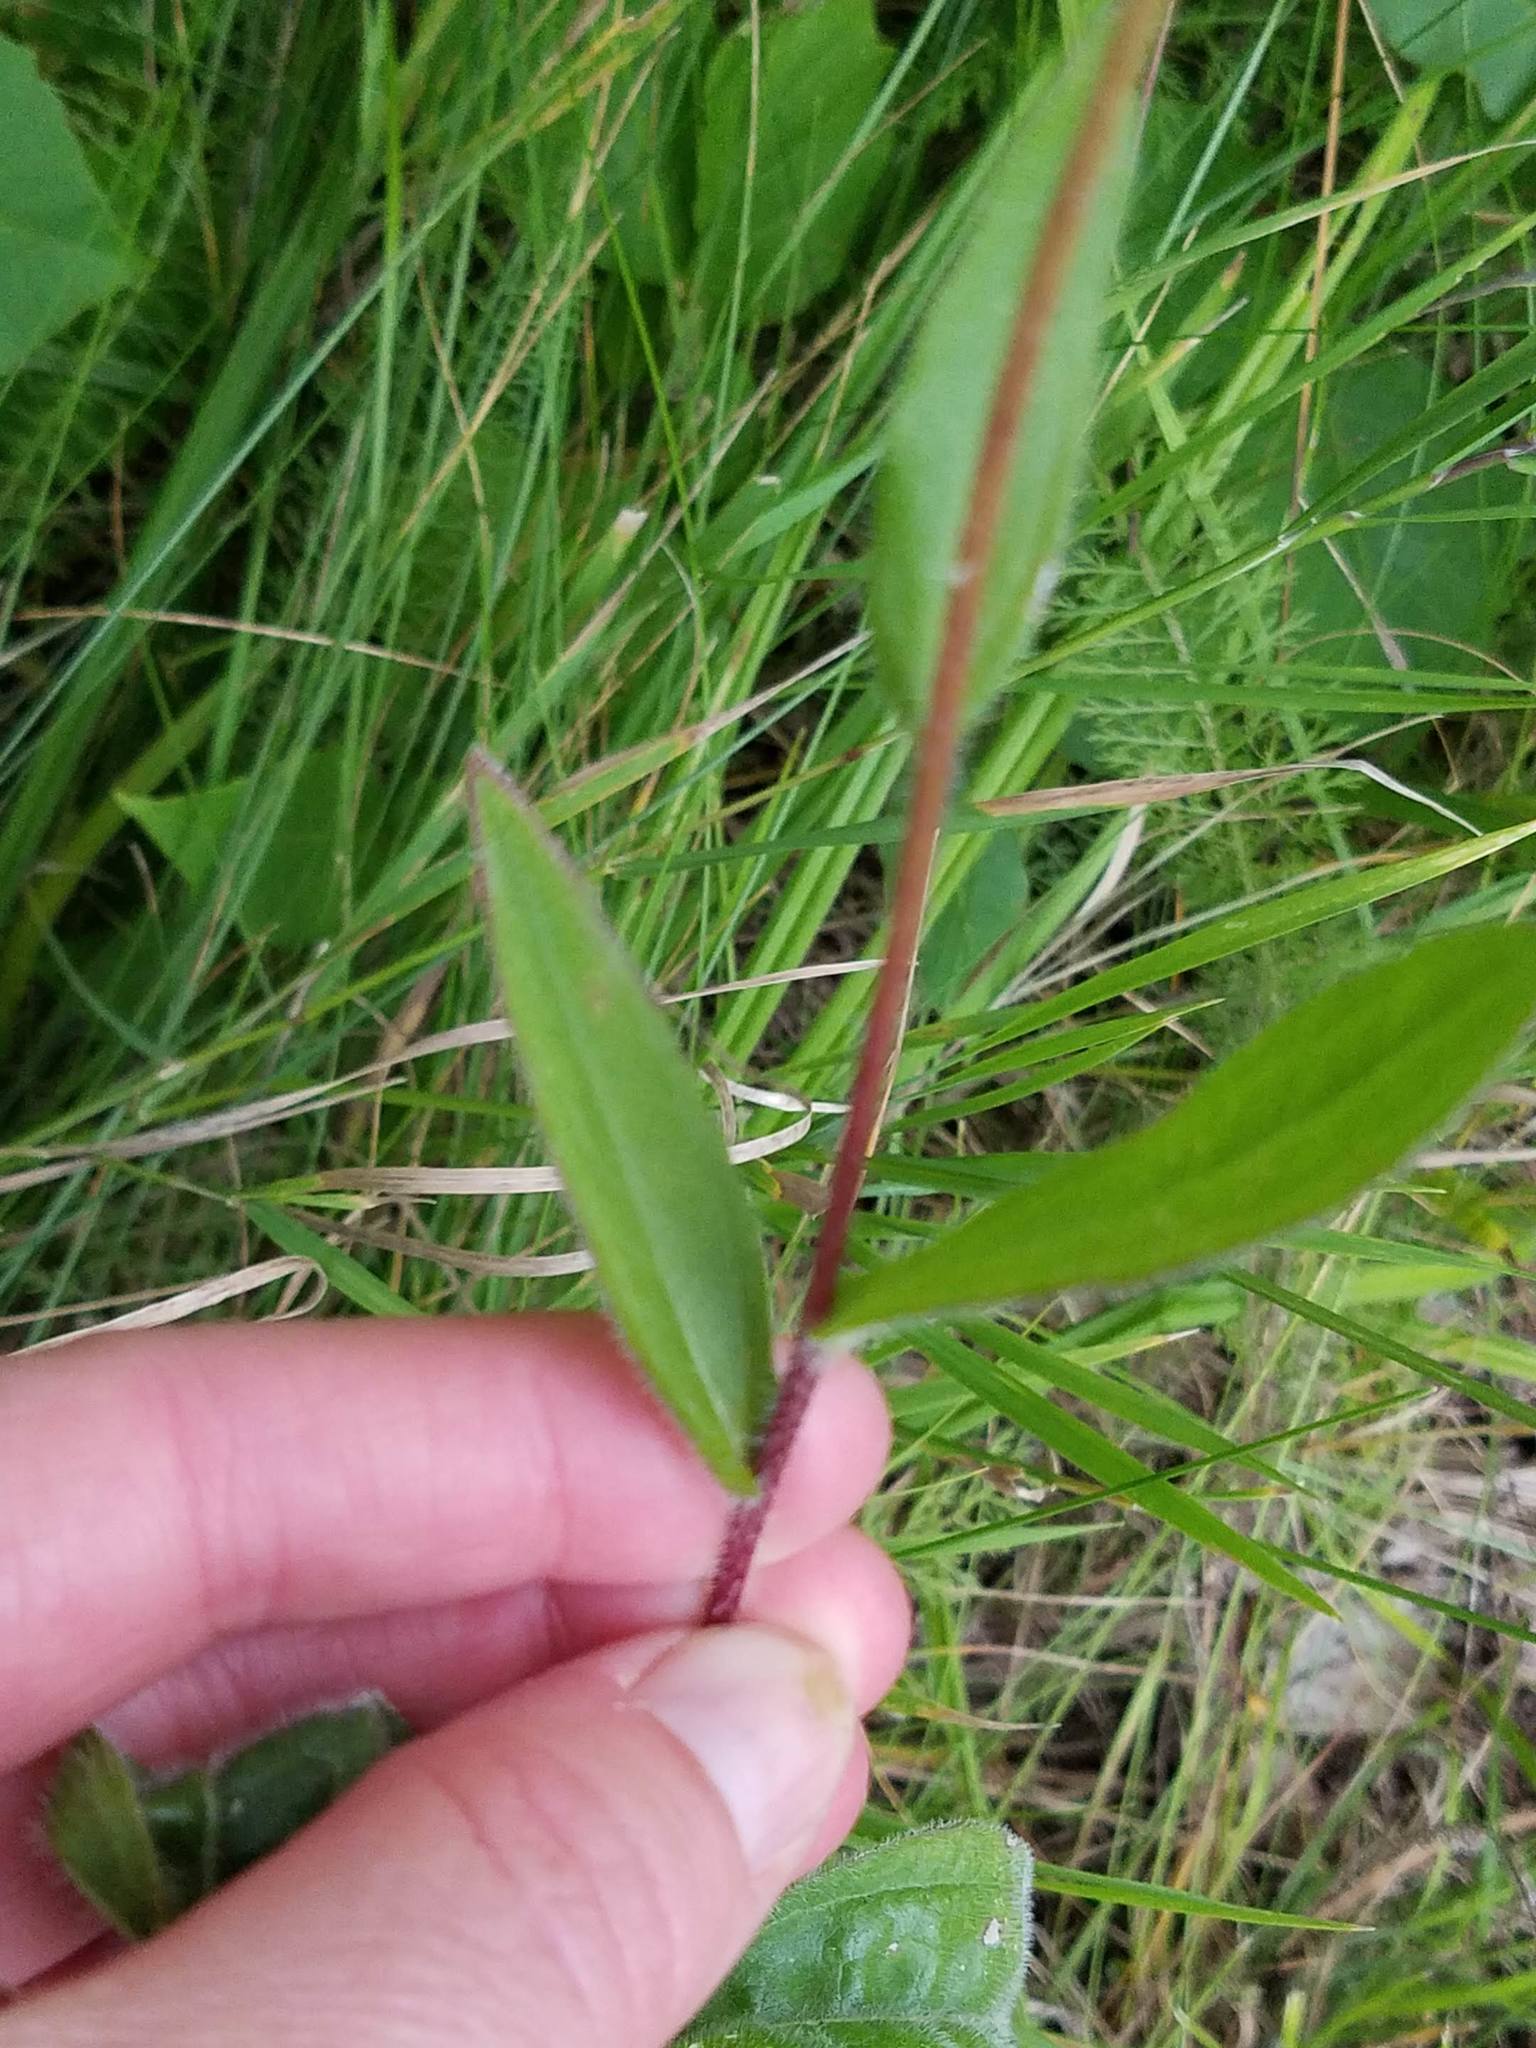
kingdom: Plantae
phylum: Tracheophyta
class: Magnoliopsida
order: Asterales
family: Asteraceae
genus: Rudbeckia
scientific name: Rudbeckia hirta
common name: Black-eyed-susan
